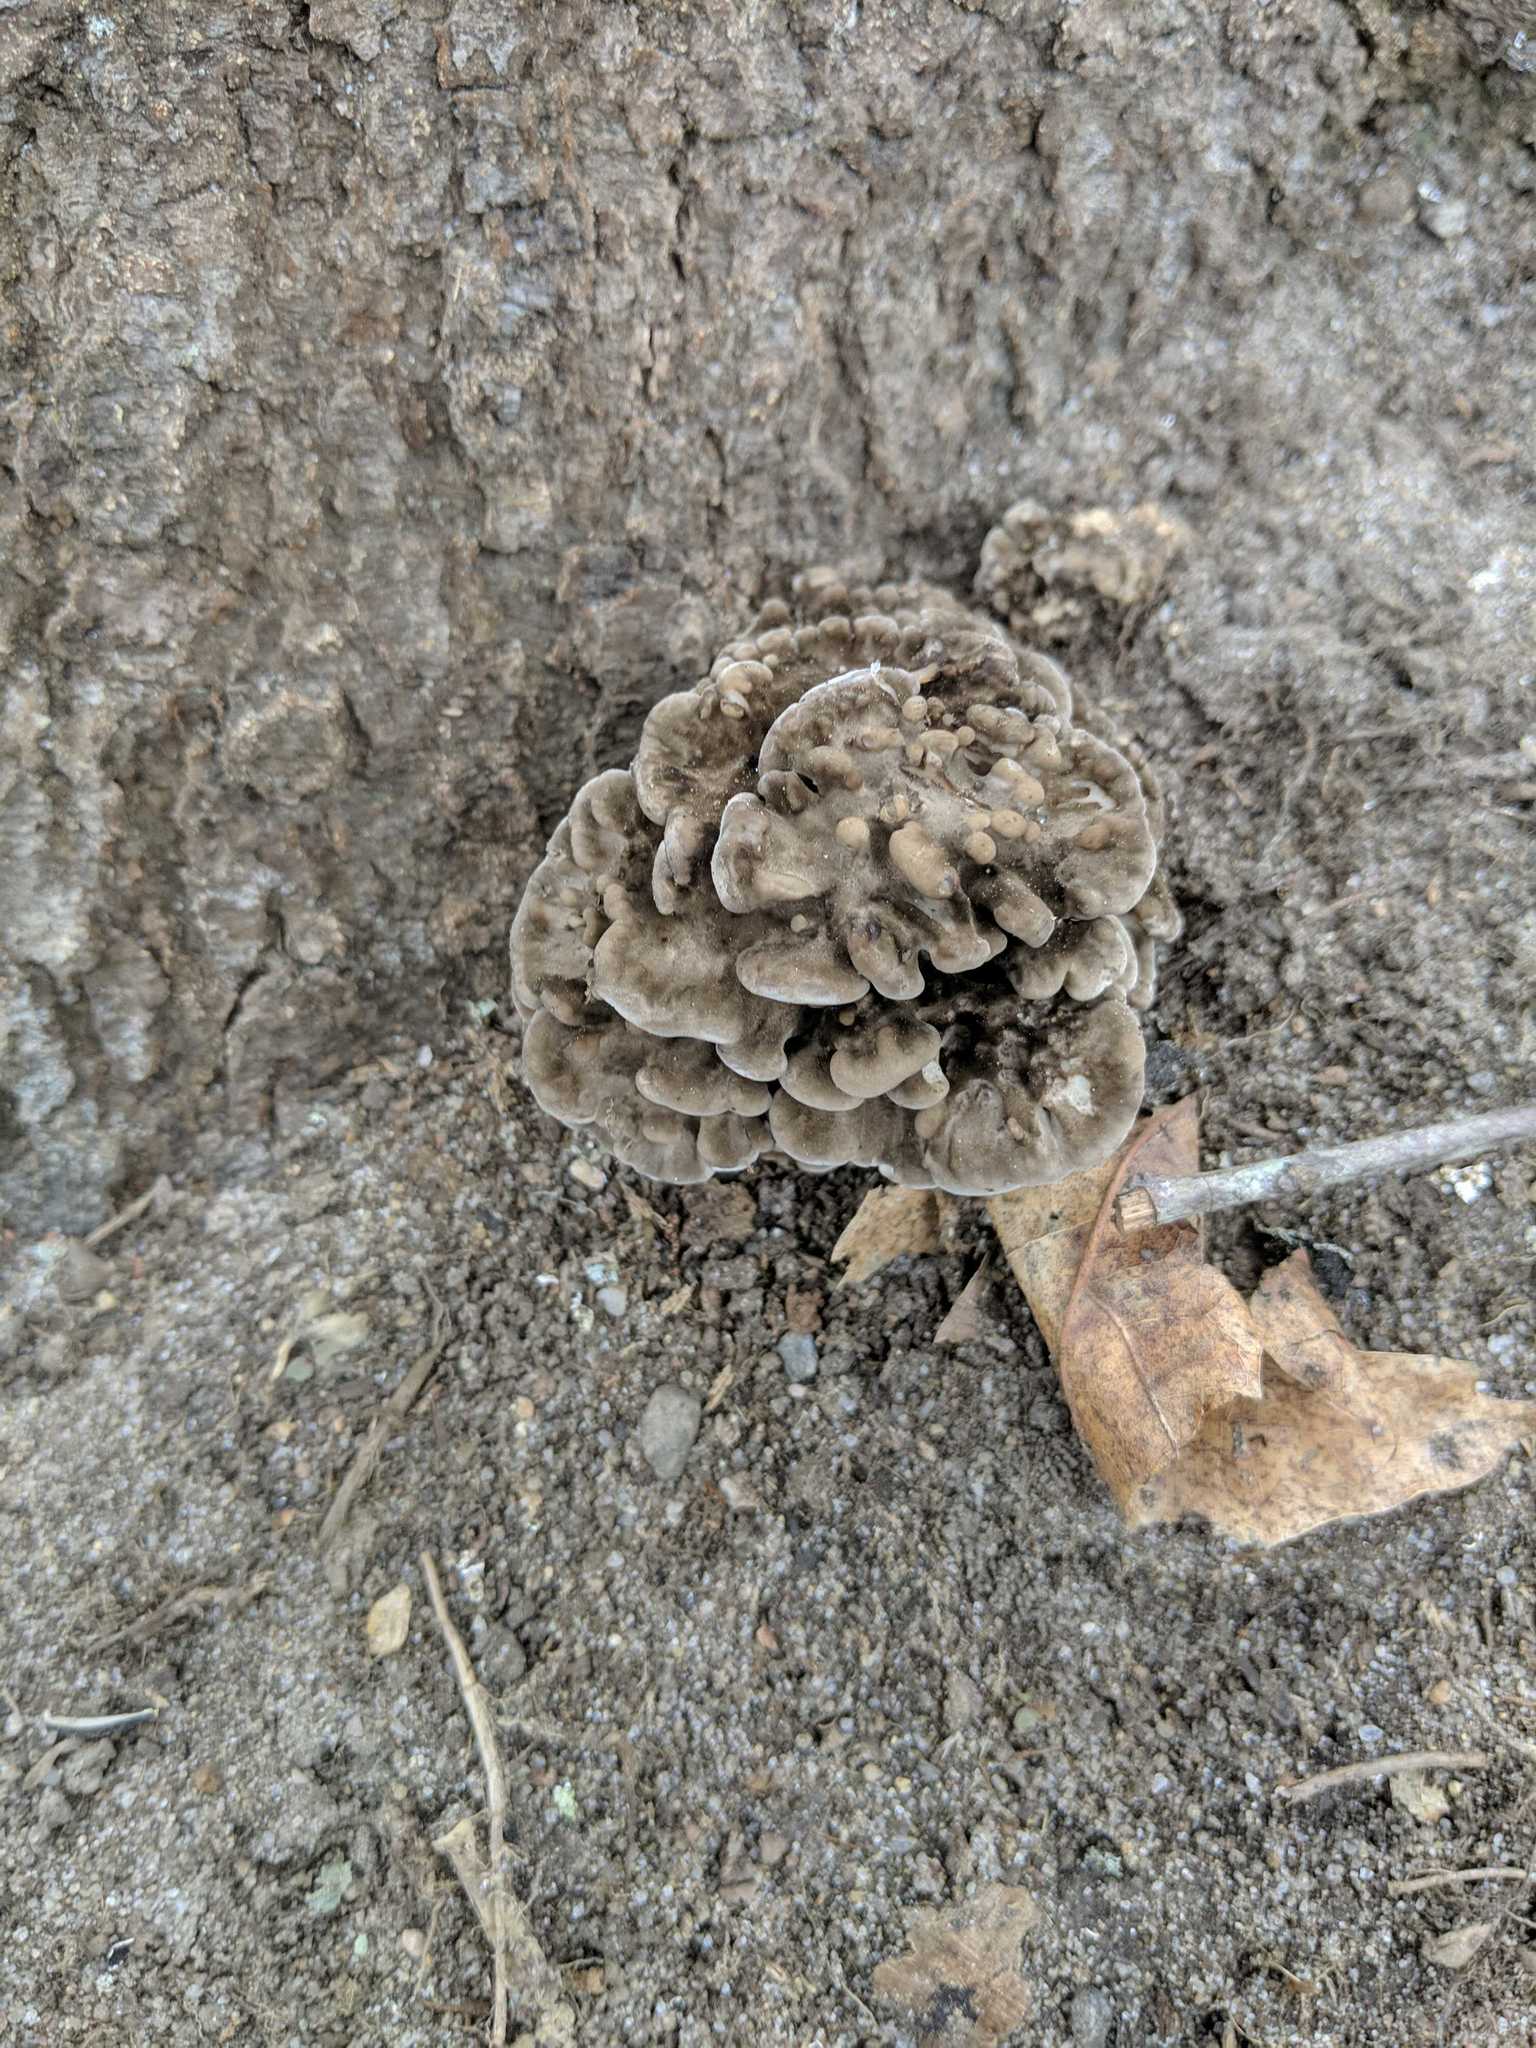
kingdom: Fungi
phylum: Basidiomycota
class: Agaricomycetes
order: Polyporales
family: Grifolaceae
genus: Grifola
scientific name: Grifola frondosa
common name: Hen of the woods
